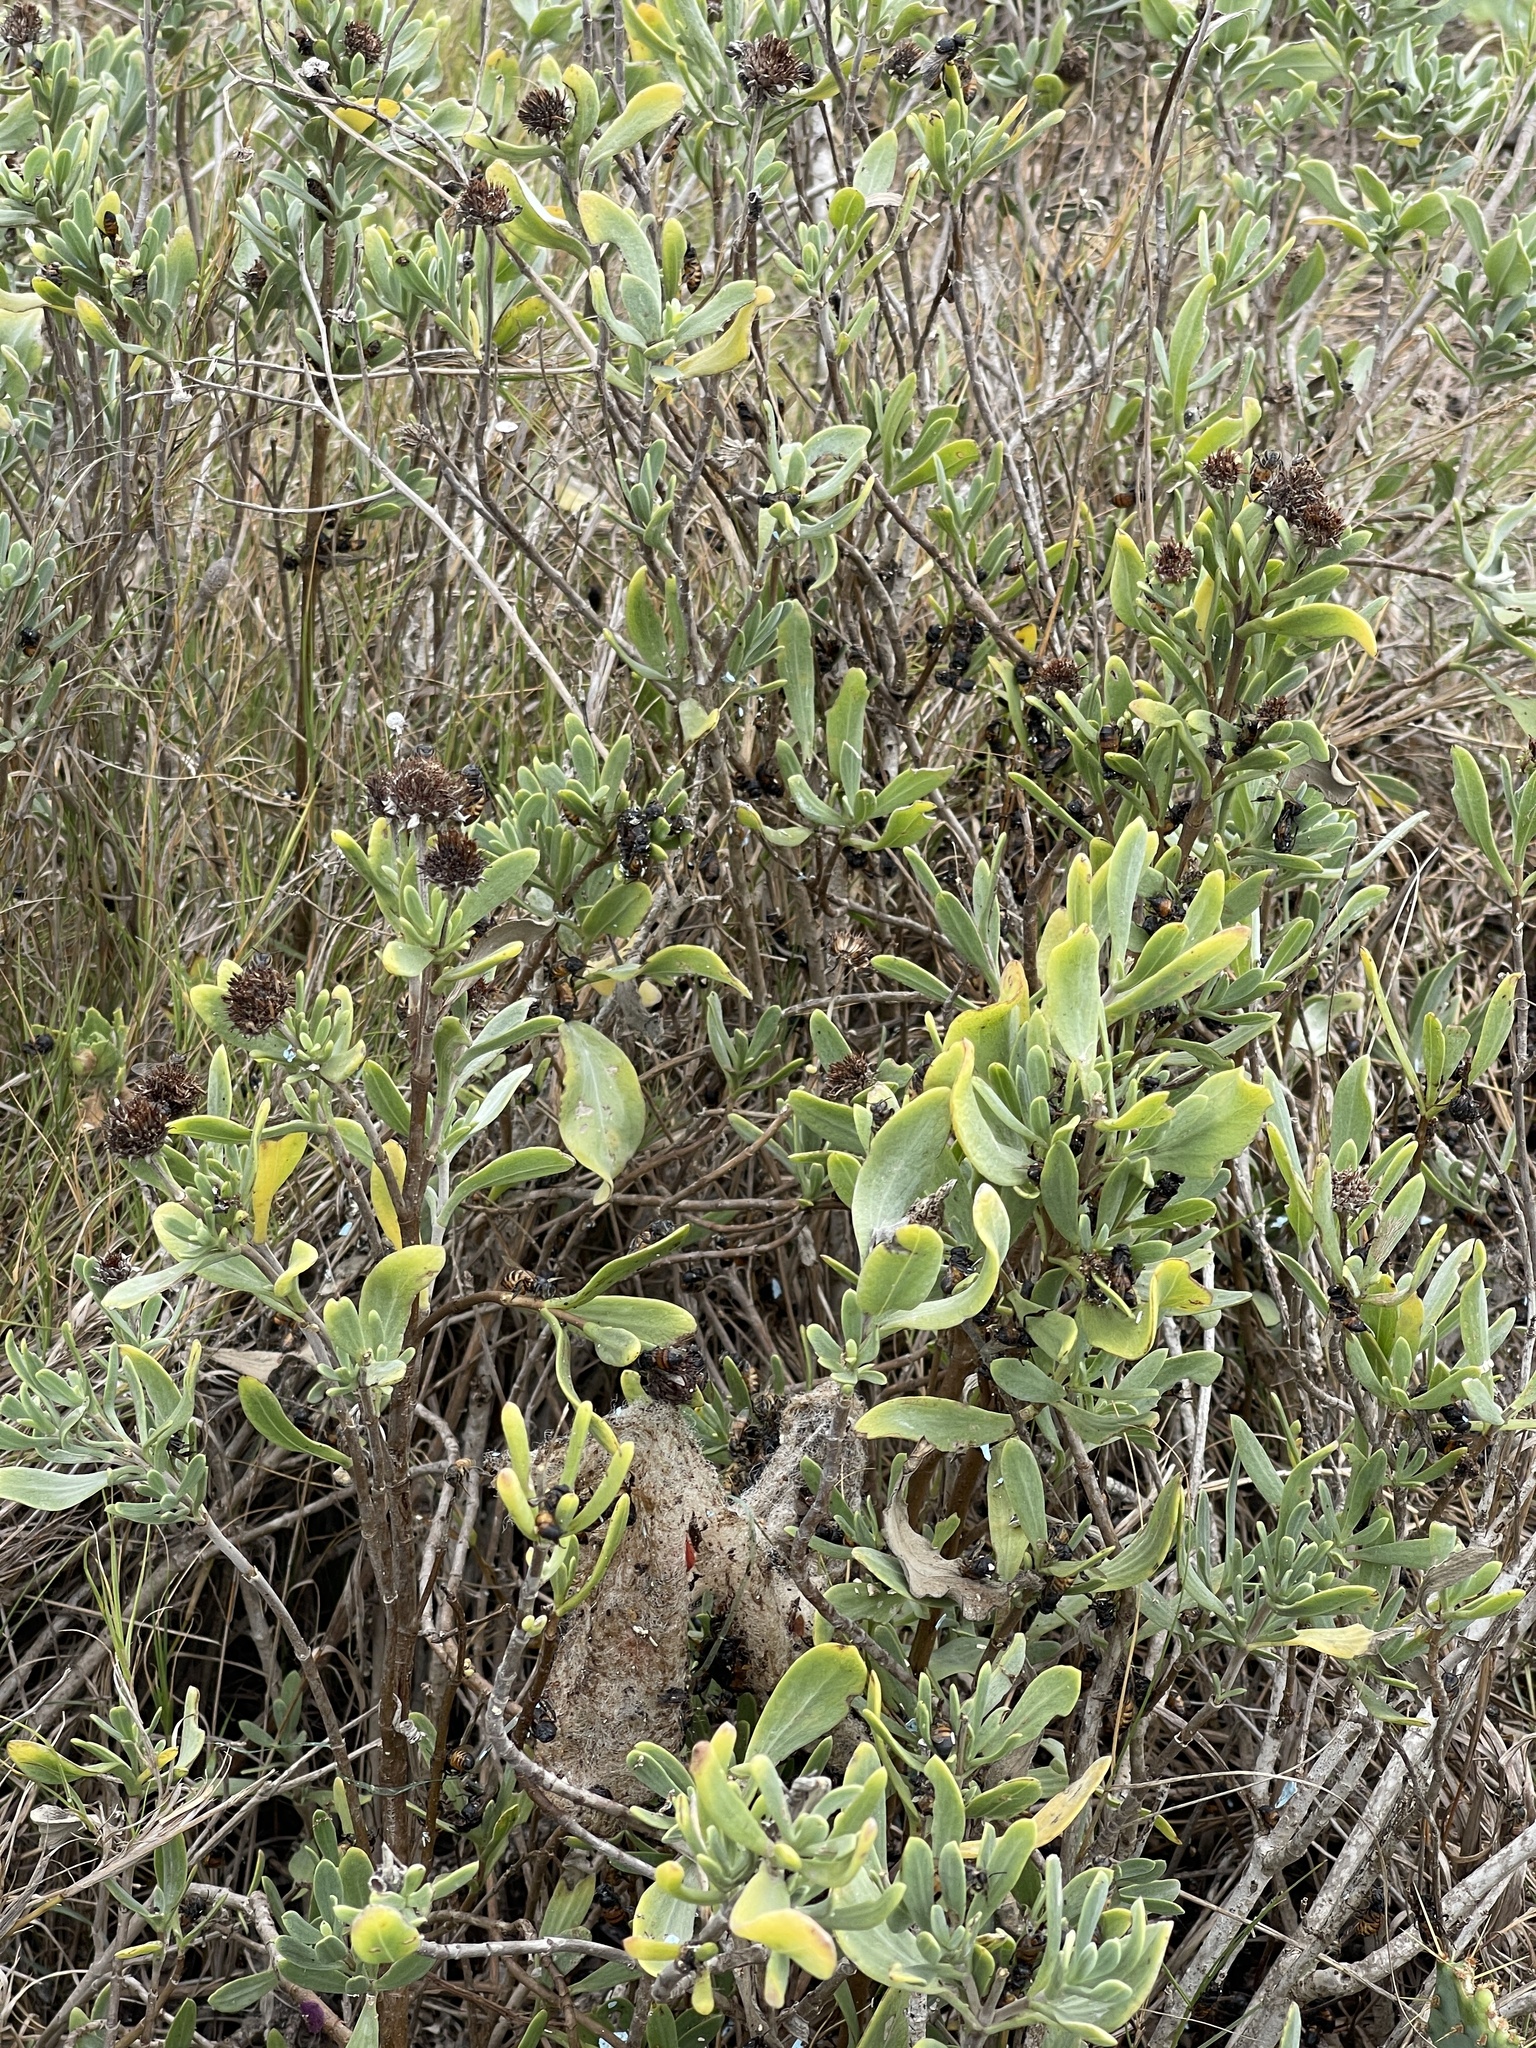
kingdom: Plantae
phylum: Tracheophyta
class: Magnoliopsida
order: Asterales
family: Asteraceae
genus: Borrichia
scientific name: Borrichia frutescens
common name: Sea oxeye
